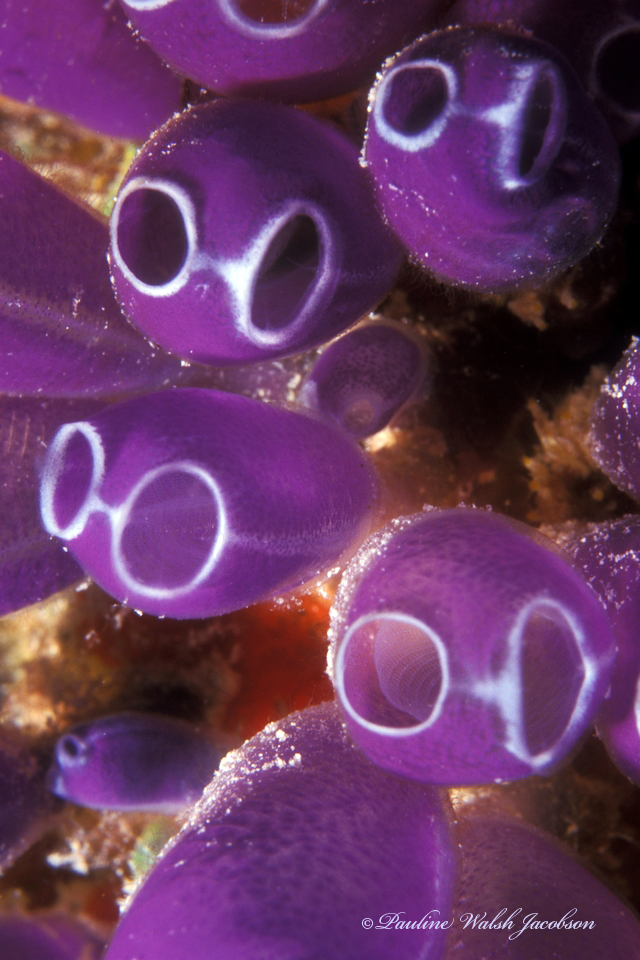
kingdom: Animalia
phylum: Chordata
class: Ascidiacea
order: Aplousobranchia
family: Clavelinidae
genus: Clavelina
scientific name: Clavelina puertosecensis
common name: Blue bell tunicate
